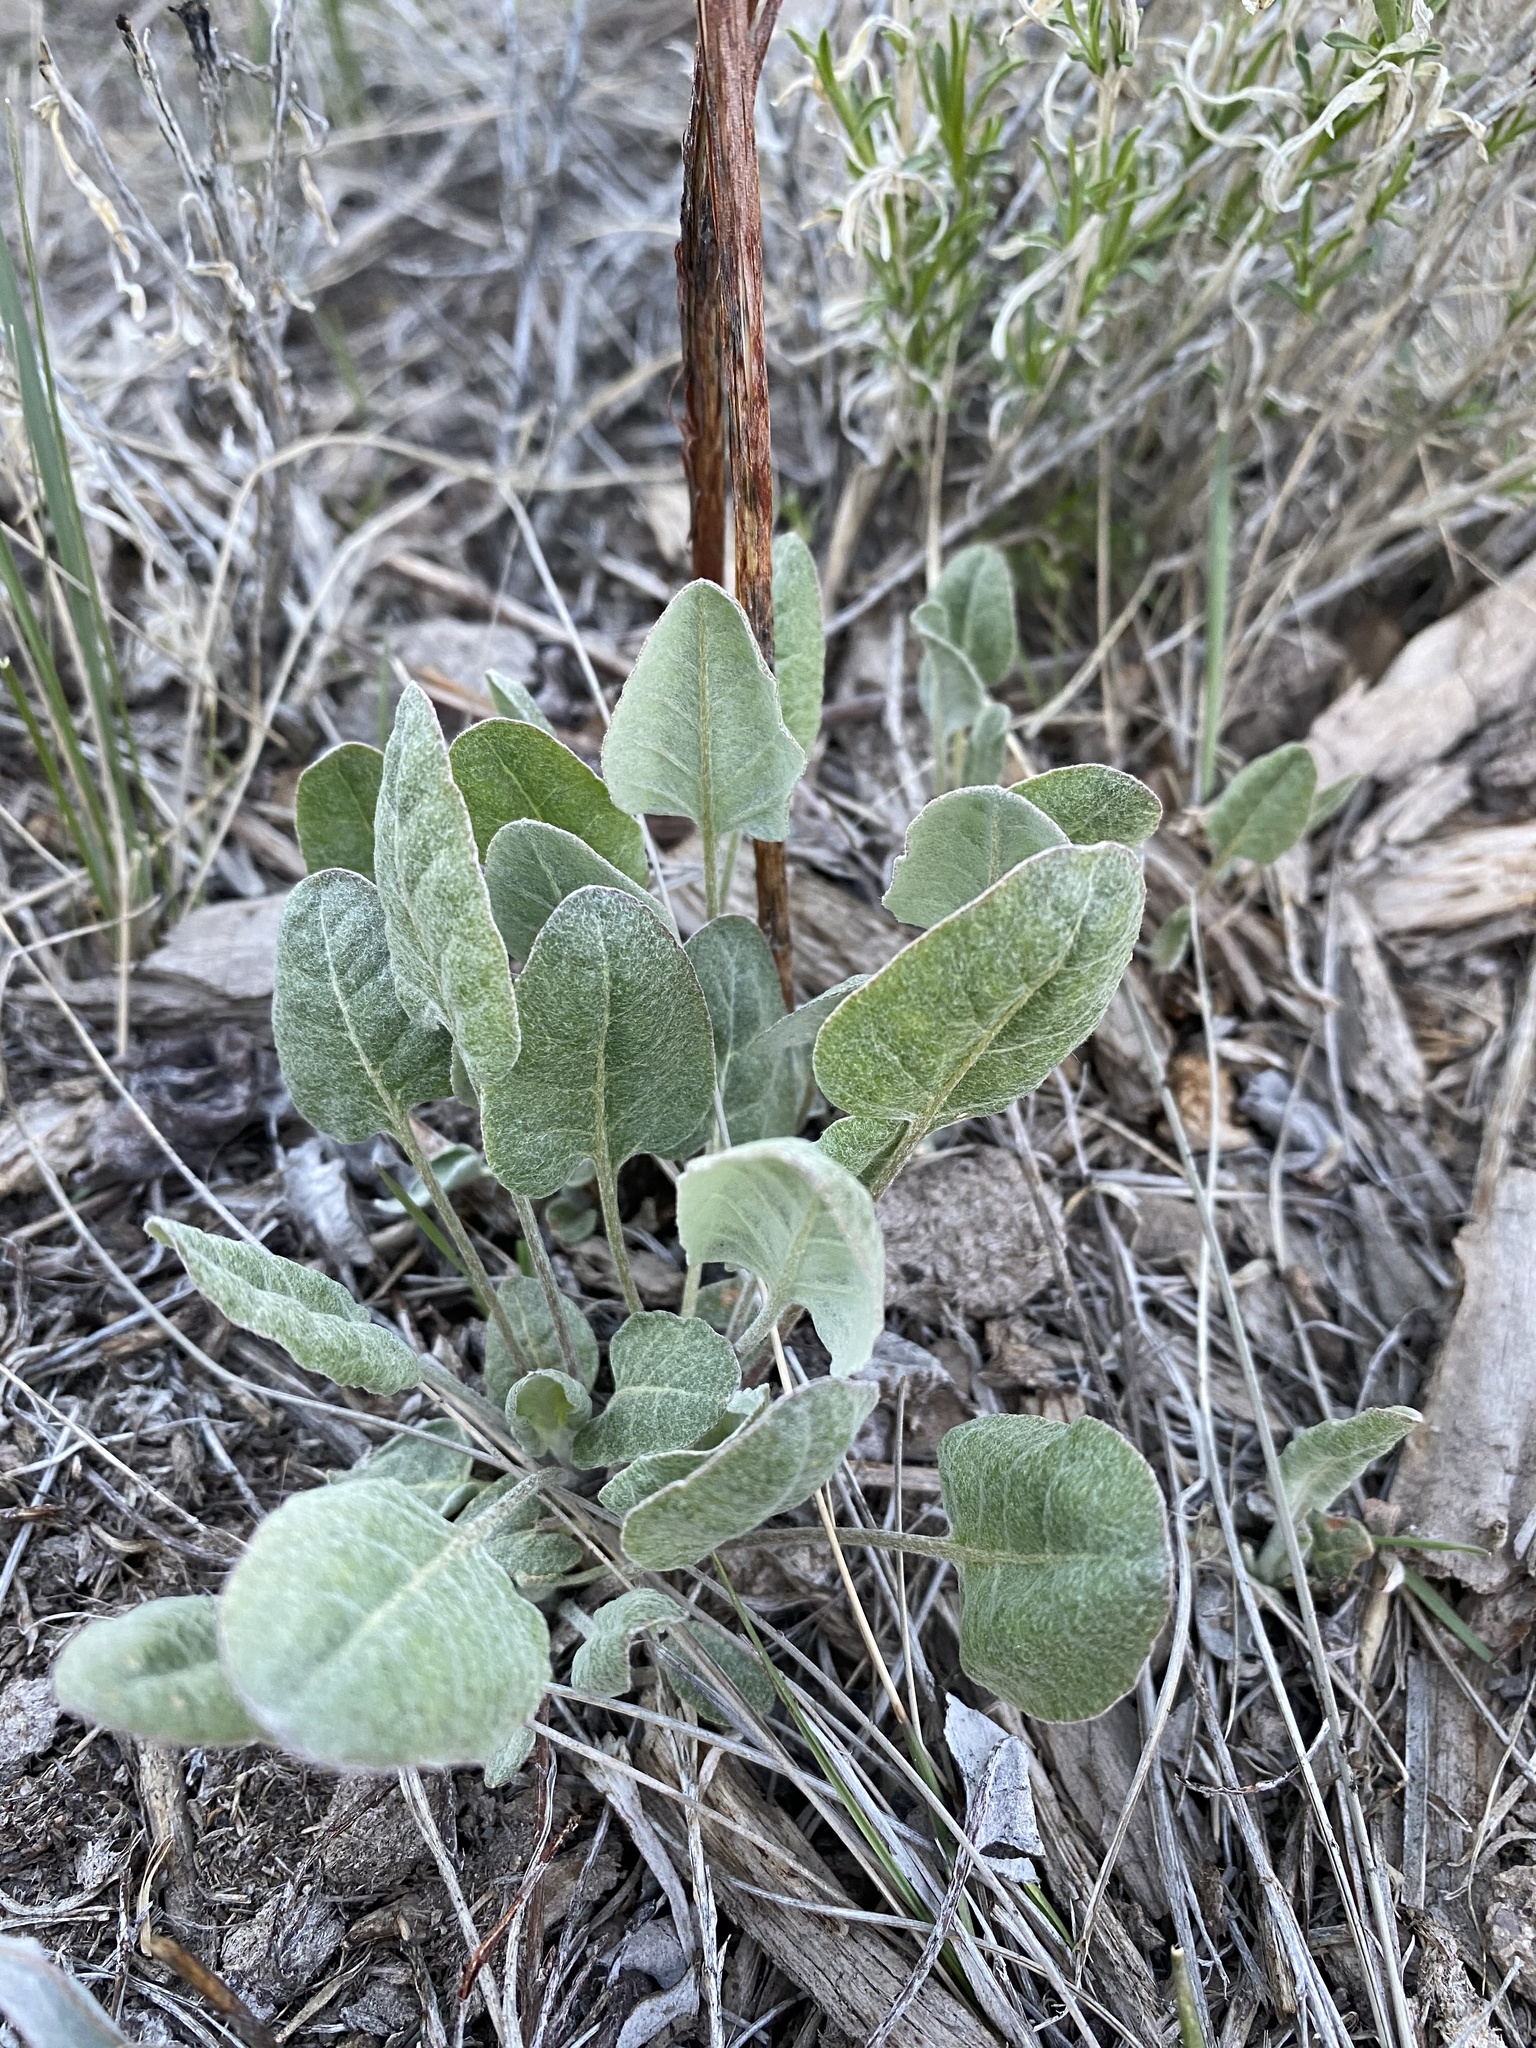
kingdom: Plantae
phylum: Tracheophyta
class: Magnoliopsida
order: Caryophyllales
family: Polygonaceae
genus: Eriogonum
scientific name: Eriogonum racemosum
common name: Redroot wild buckwheat
